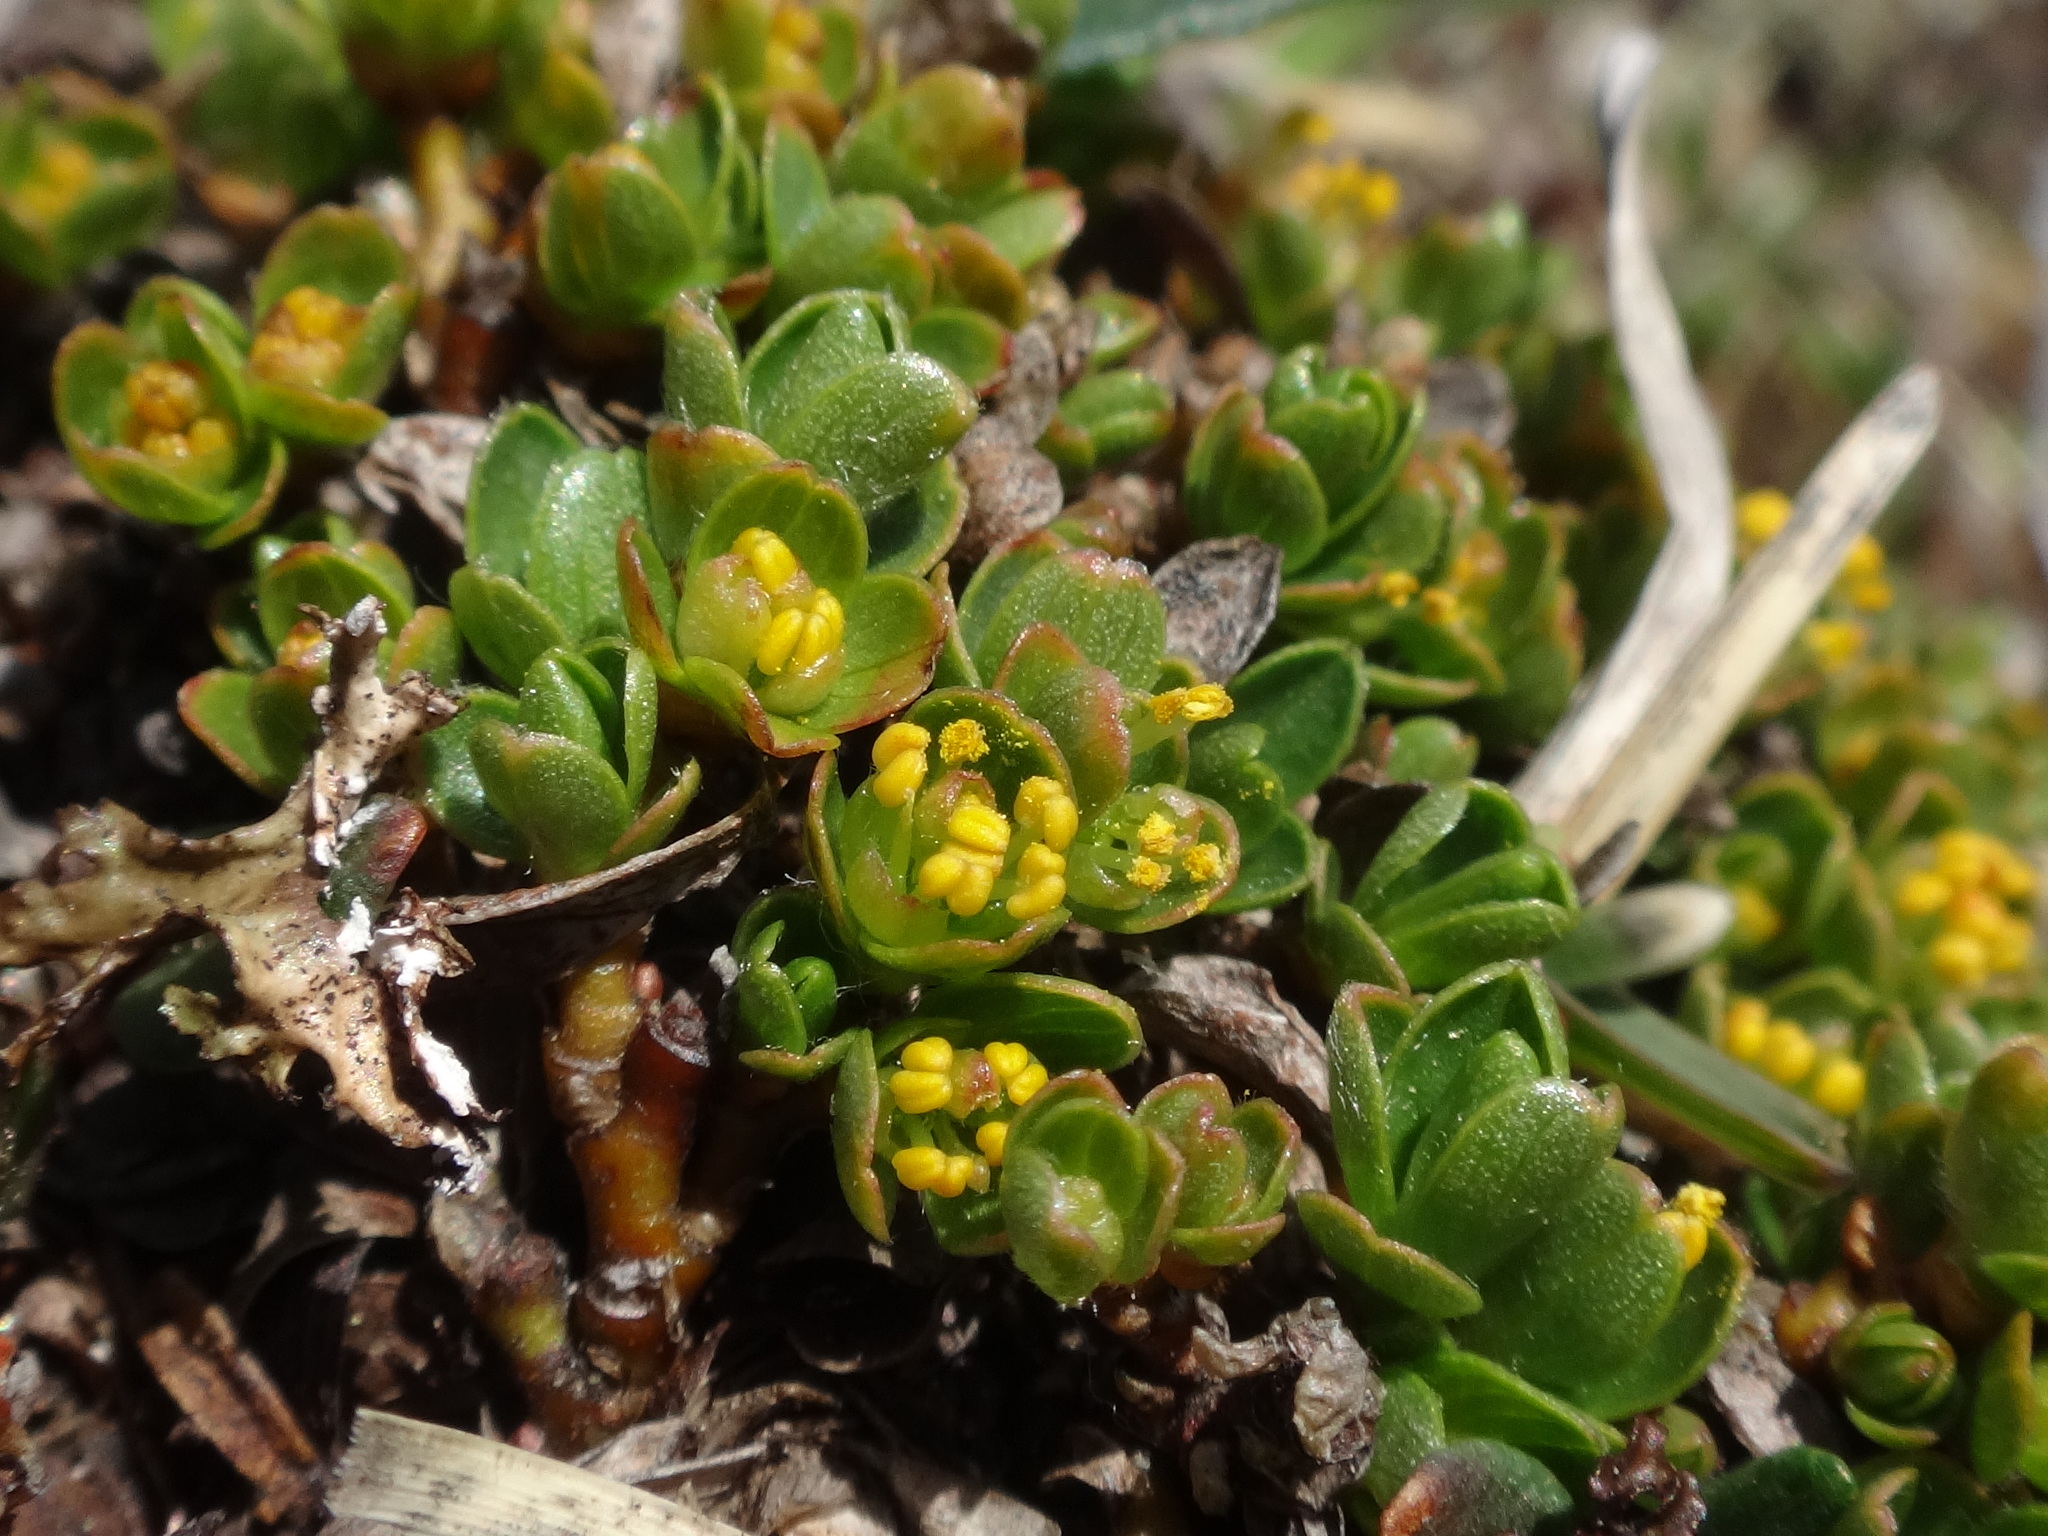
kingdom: Plantae
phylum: Tracheophyta
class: Magnoliopsida
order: Malpighiales
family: Salicaceae
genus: Salix
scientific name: Salix serpillifolia
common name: Thyme-leaf willow
